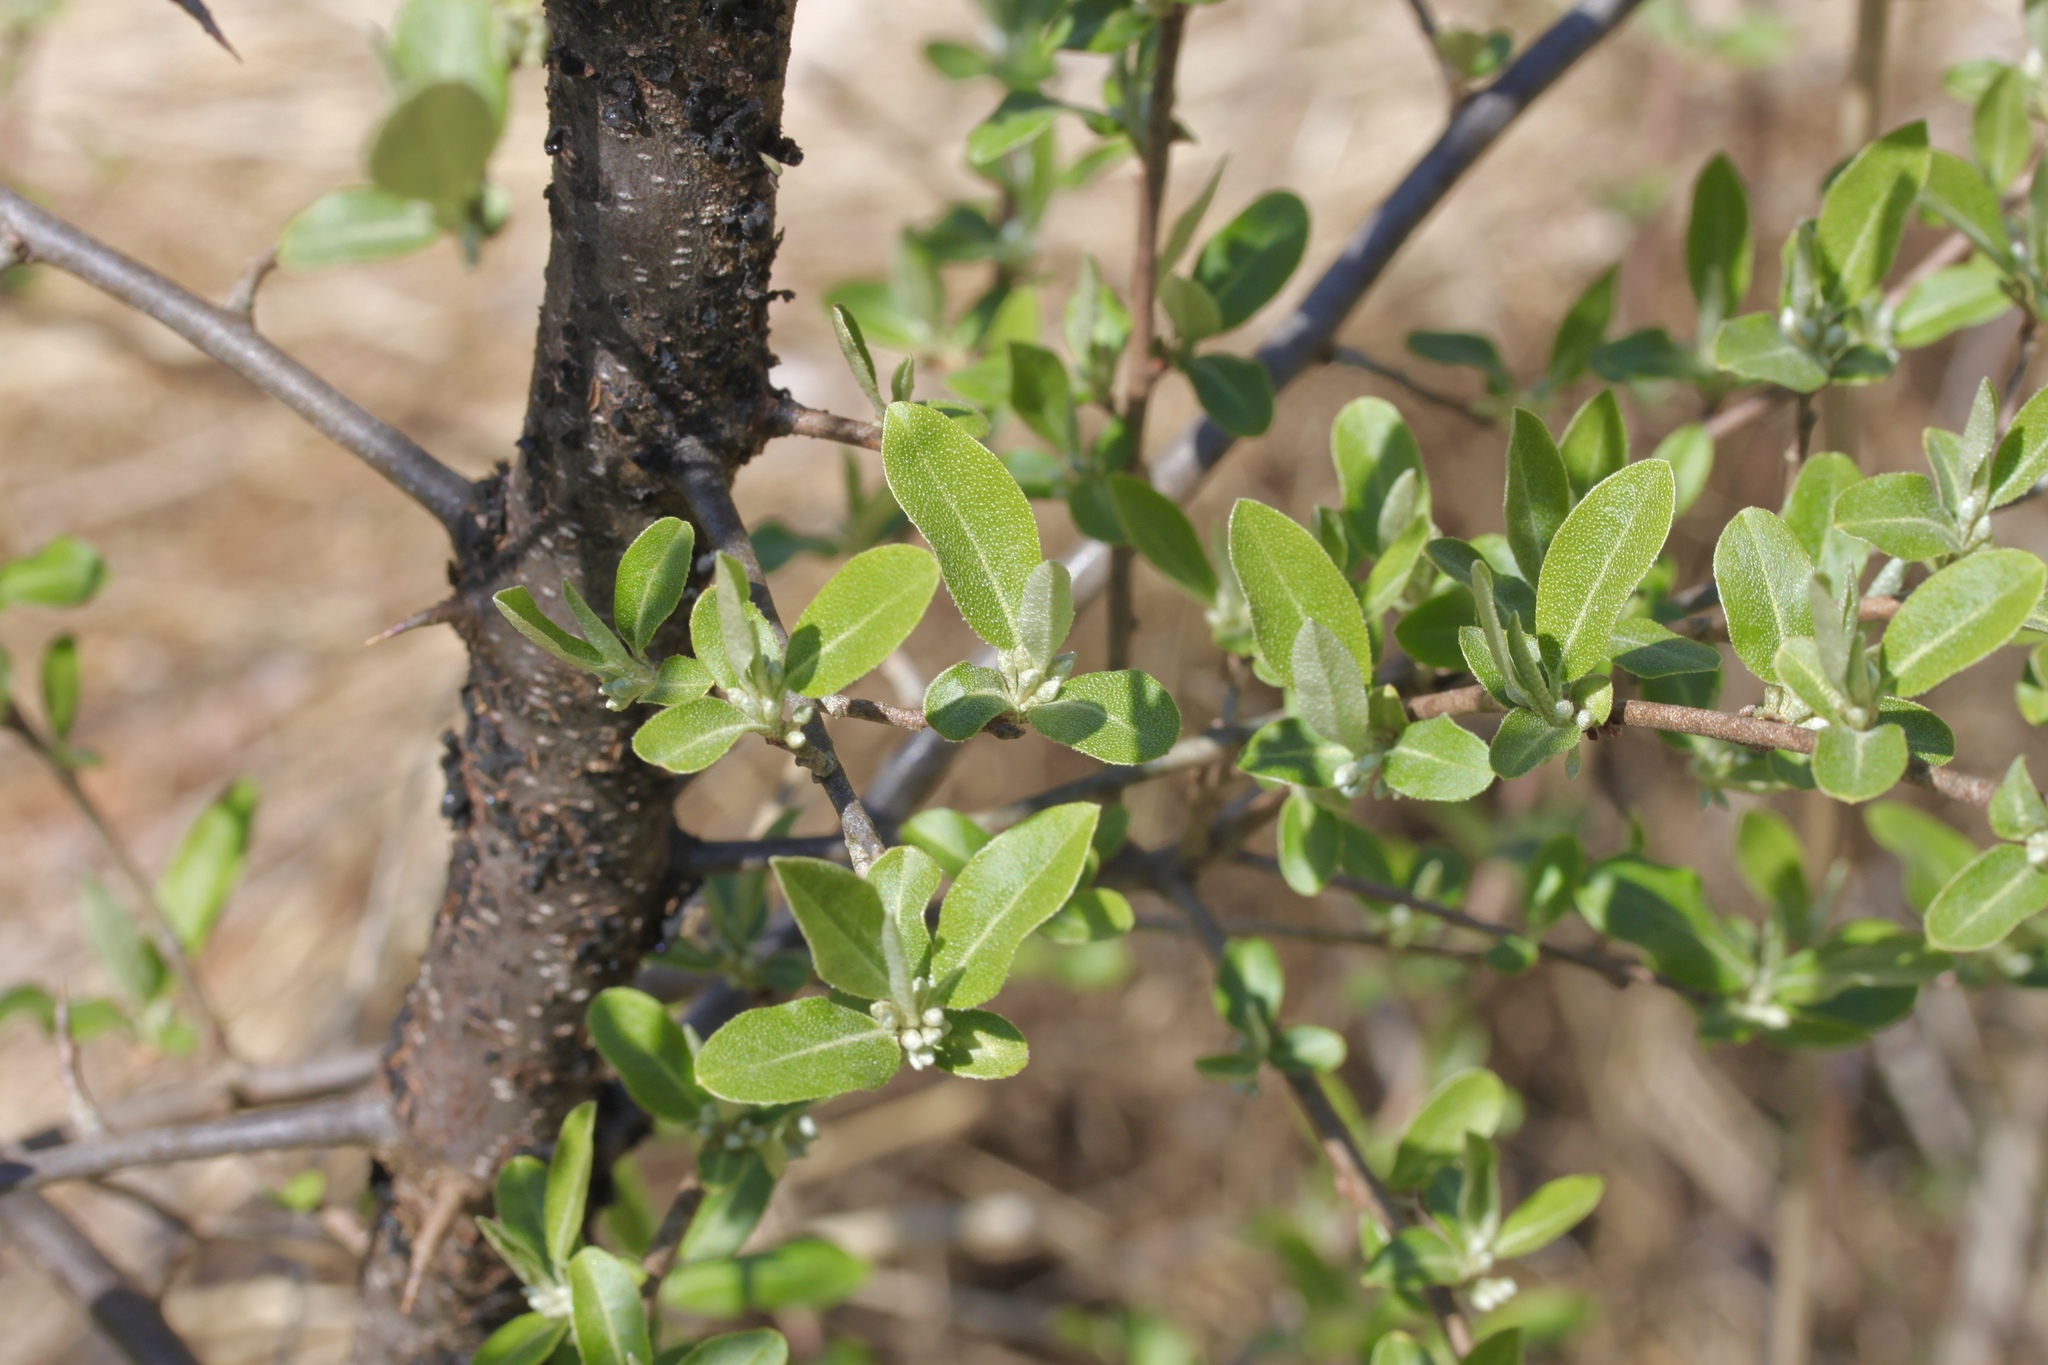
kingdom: Plantae
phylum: Tracheophyta
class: Magnoliopsida
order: Rosales
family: Elaeagnaceae
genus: Elaeagnus
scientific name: Elaeagnus umbellata
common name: Autumn olive
